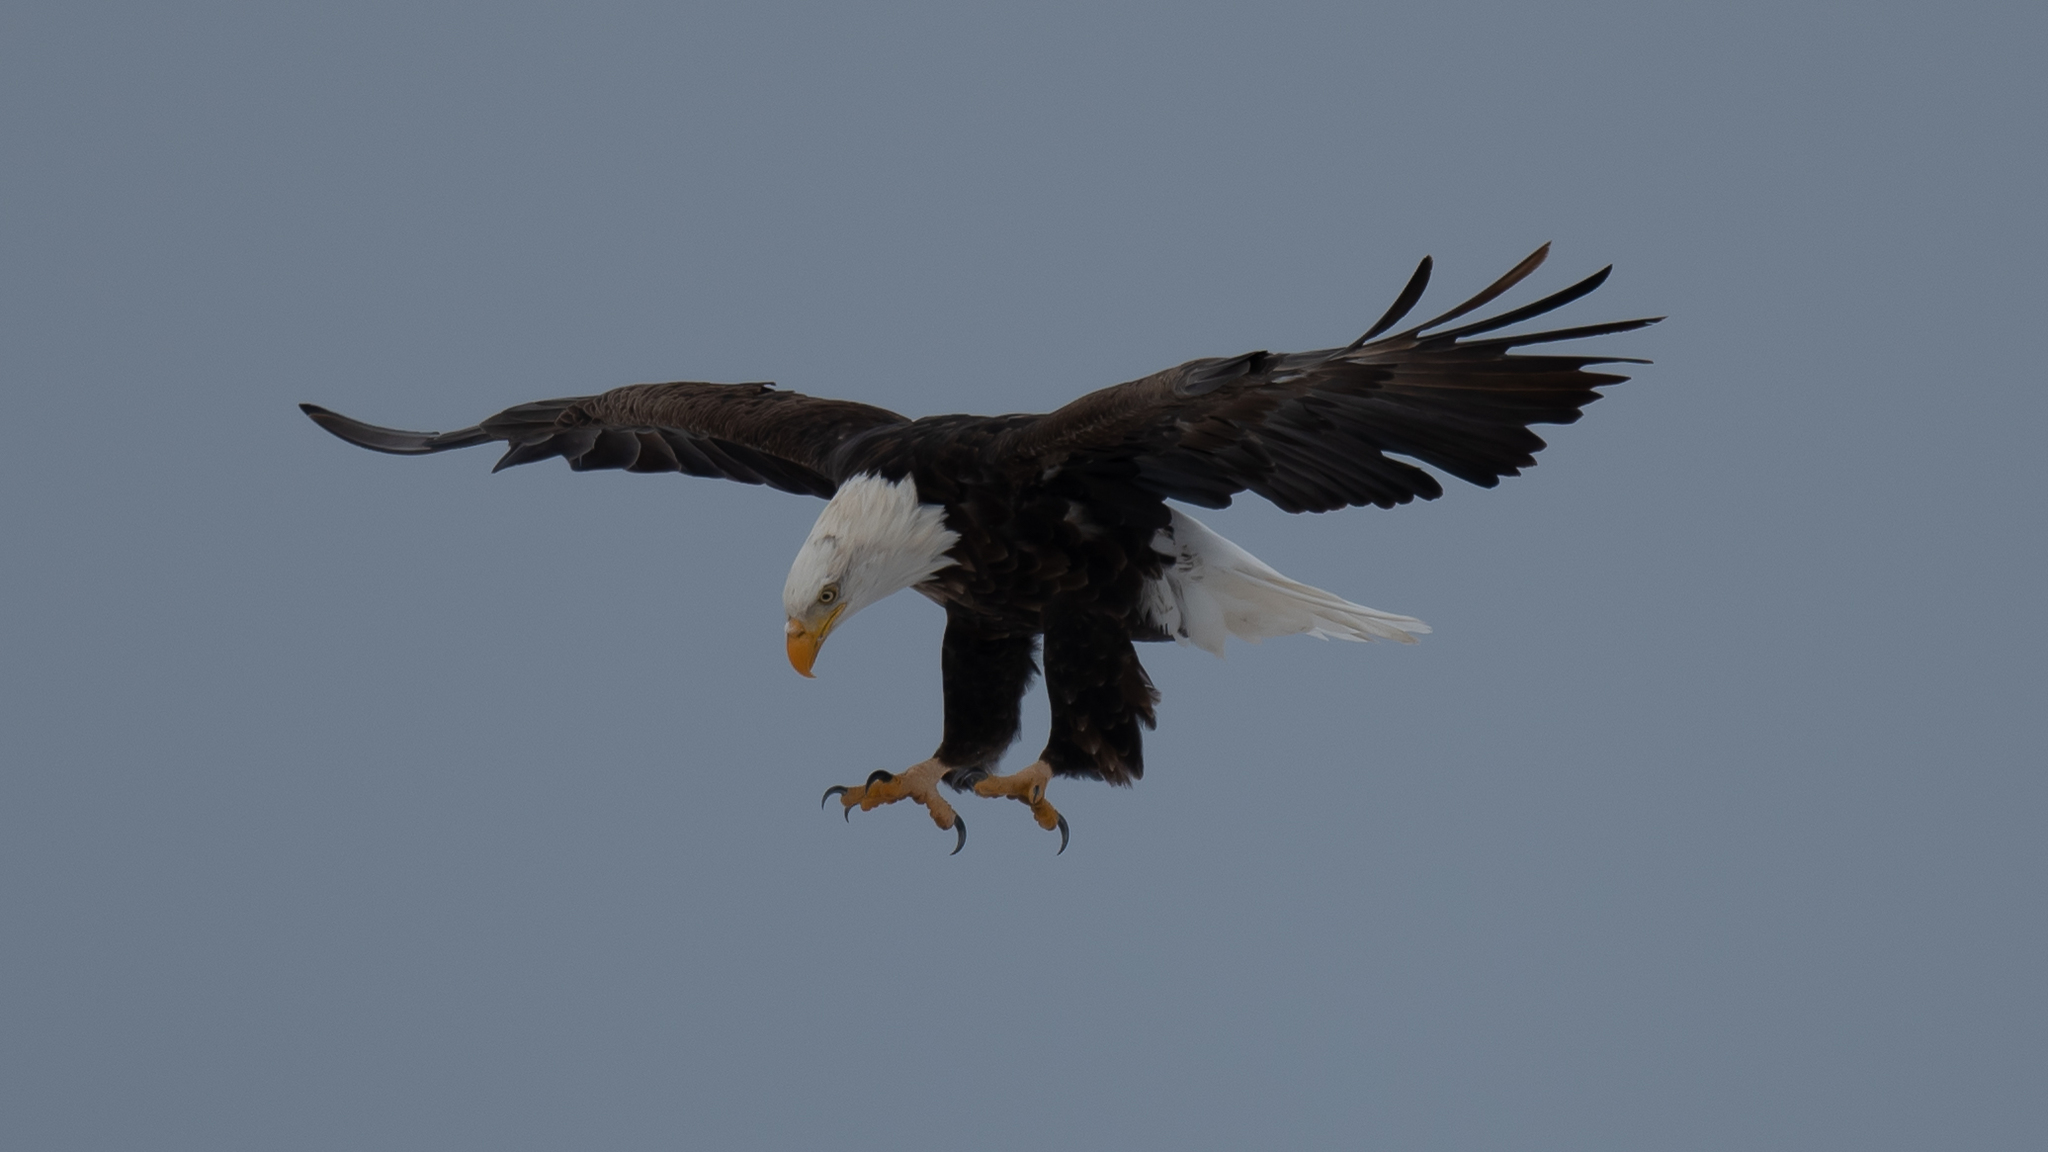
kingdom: Animalia
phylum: Chordata
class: Aves
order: Accipitriformes
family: Accipitridae
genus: Haliaeetus
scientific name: Haliaeetus leucocephalus
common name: Bald eagle
